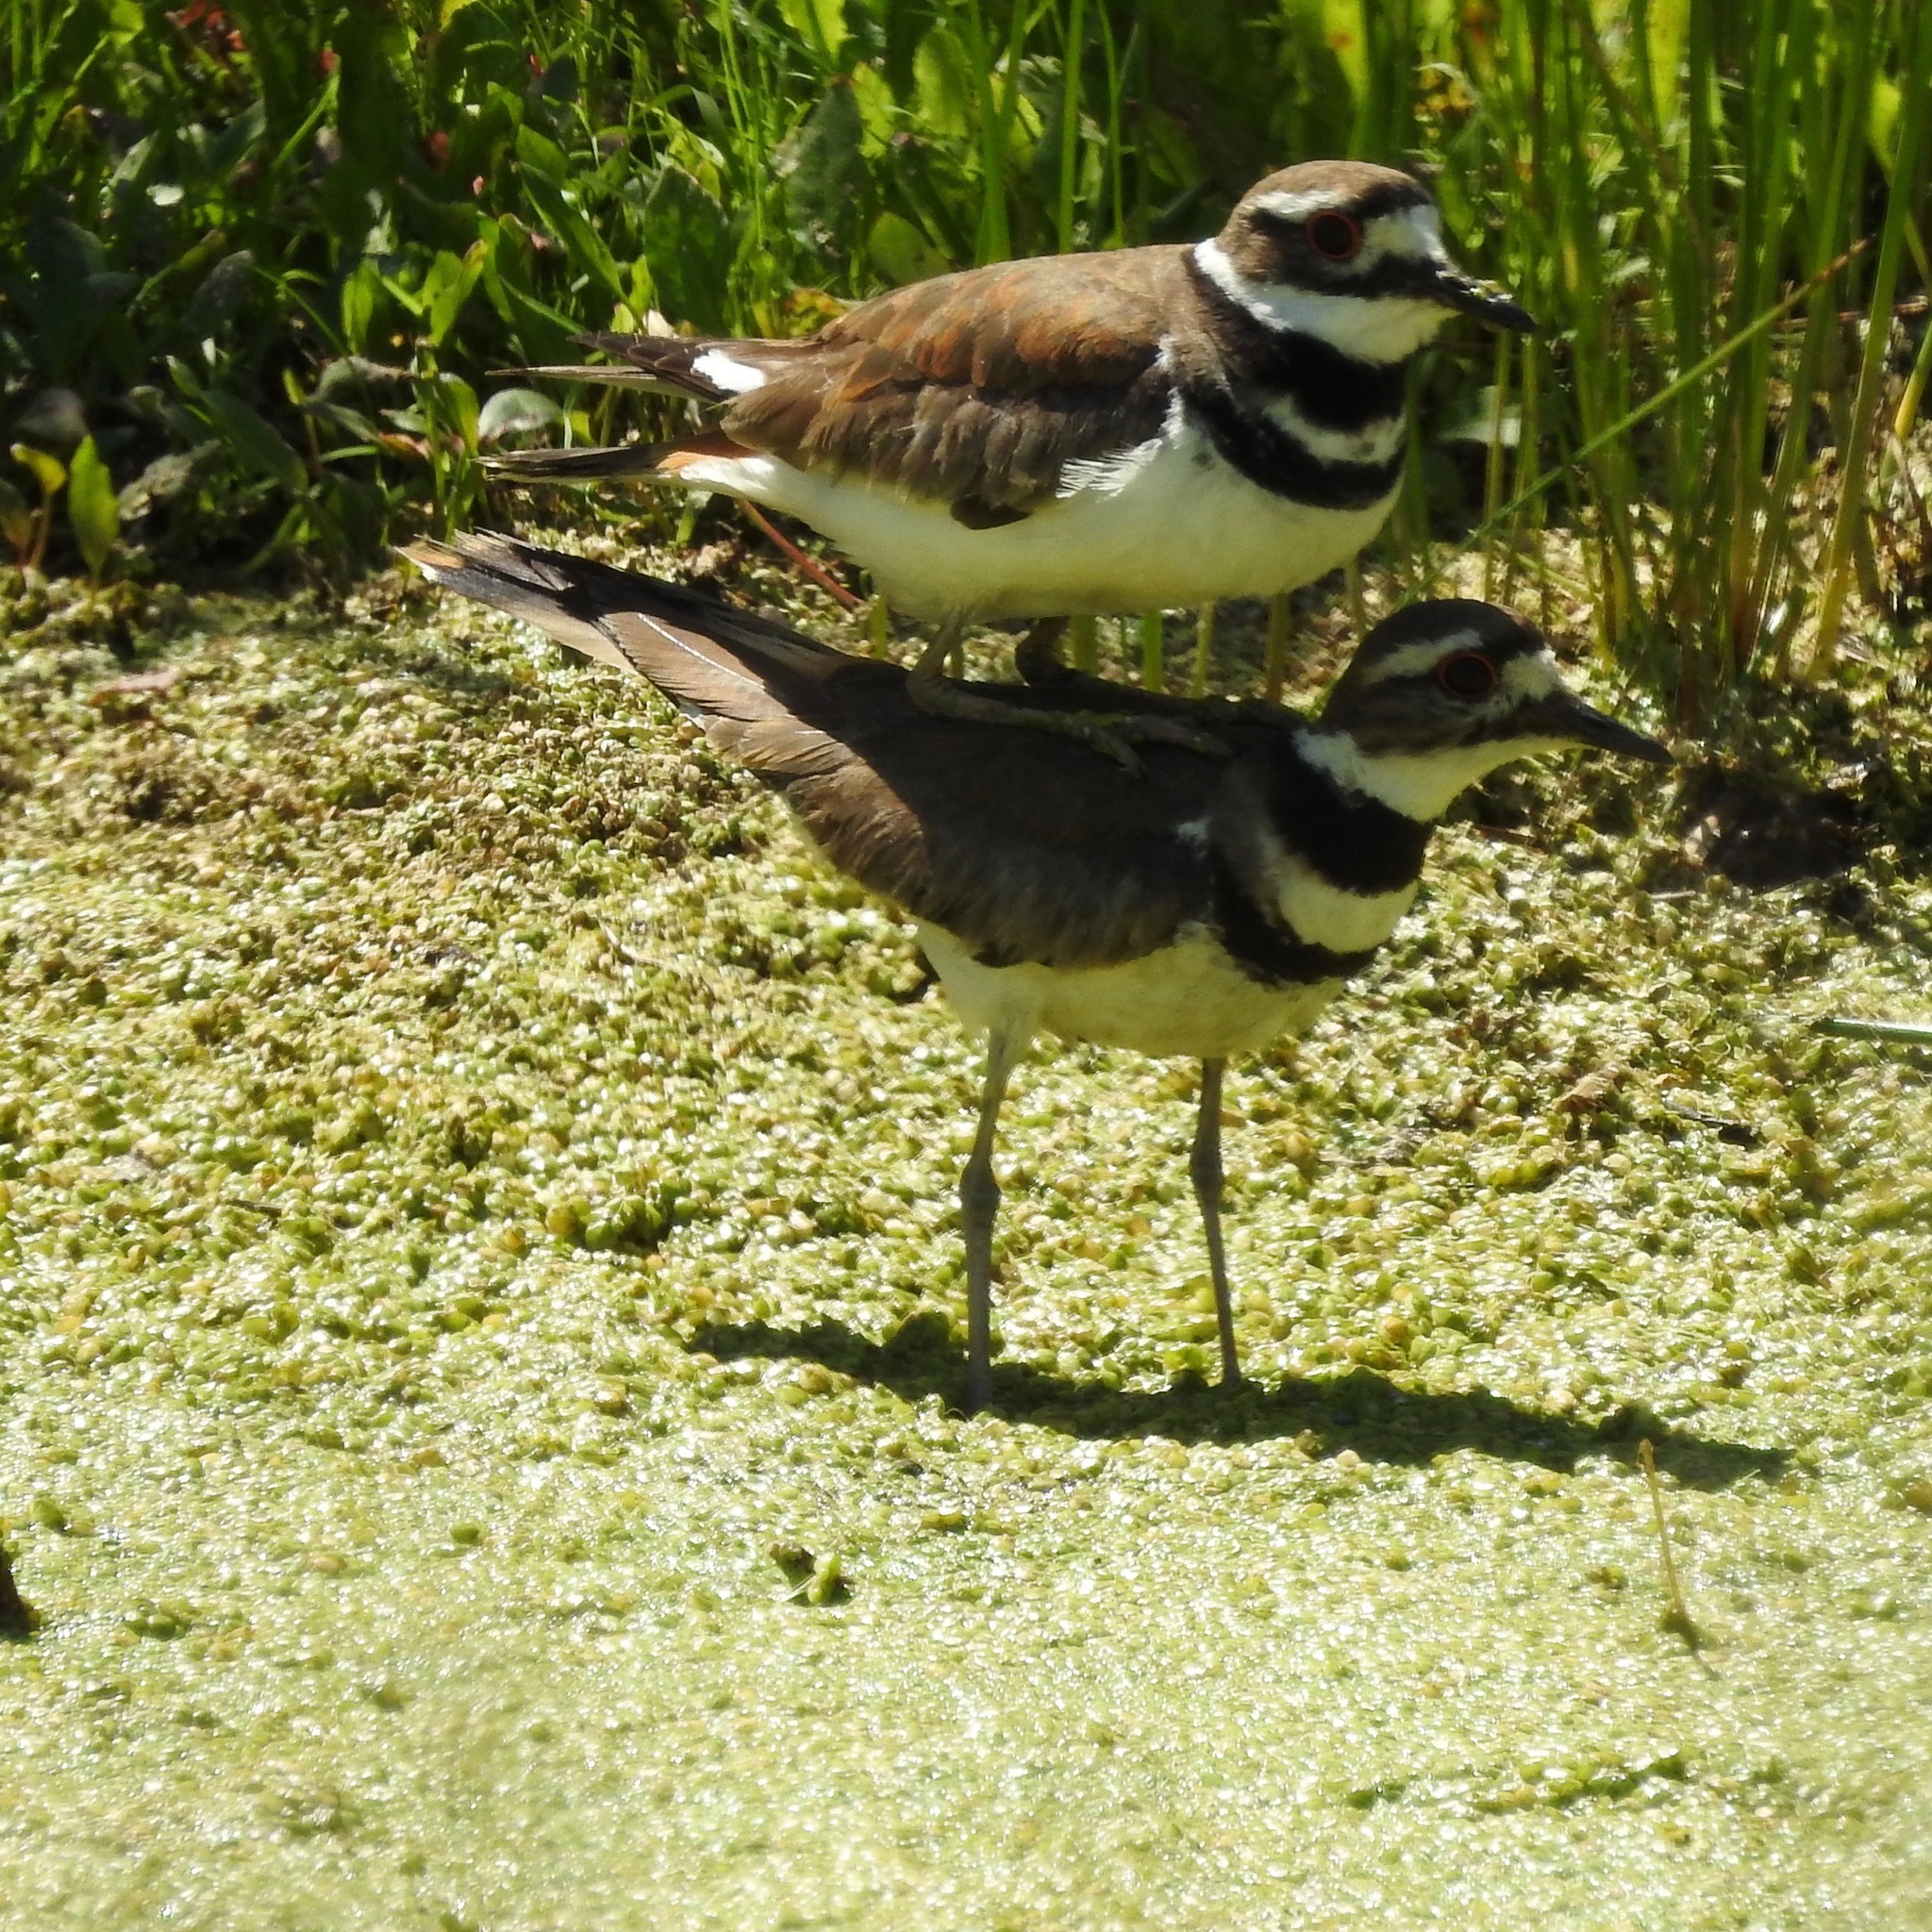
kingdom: Animalia
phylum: Chordata
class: Aves
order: Charadriiformes
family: Charadriidae
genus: Charadrius
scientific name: Charadrius vociferus
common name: Killdeer
